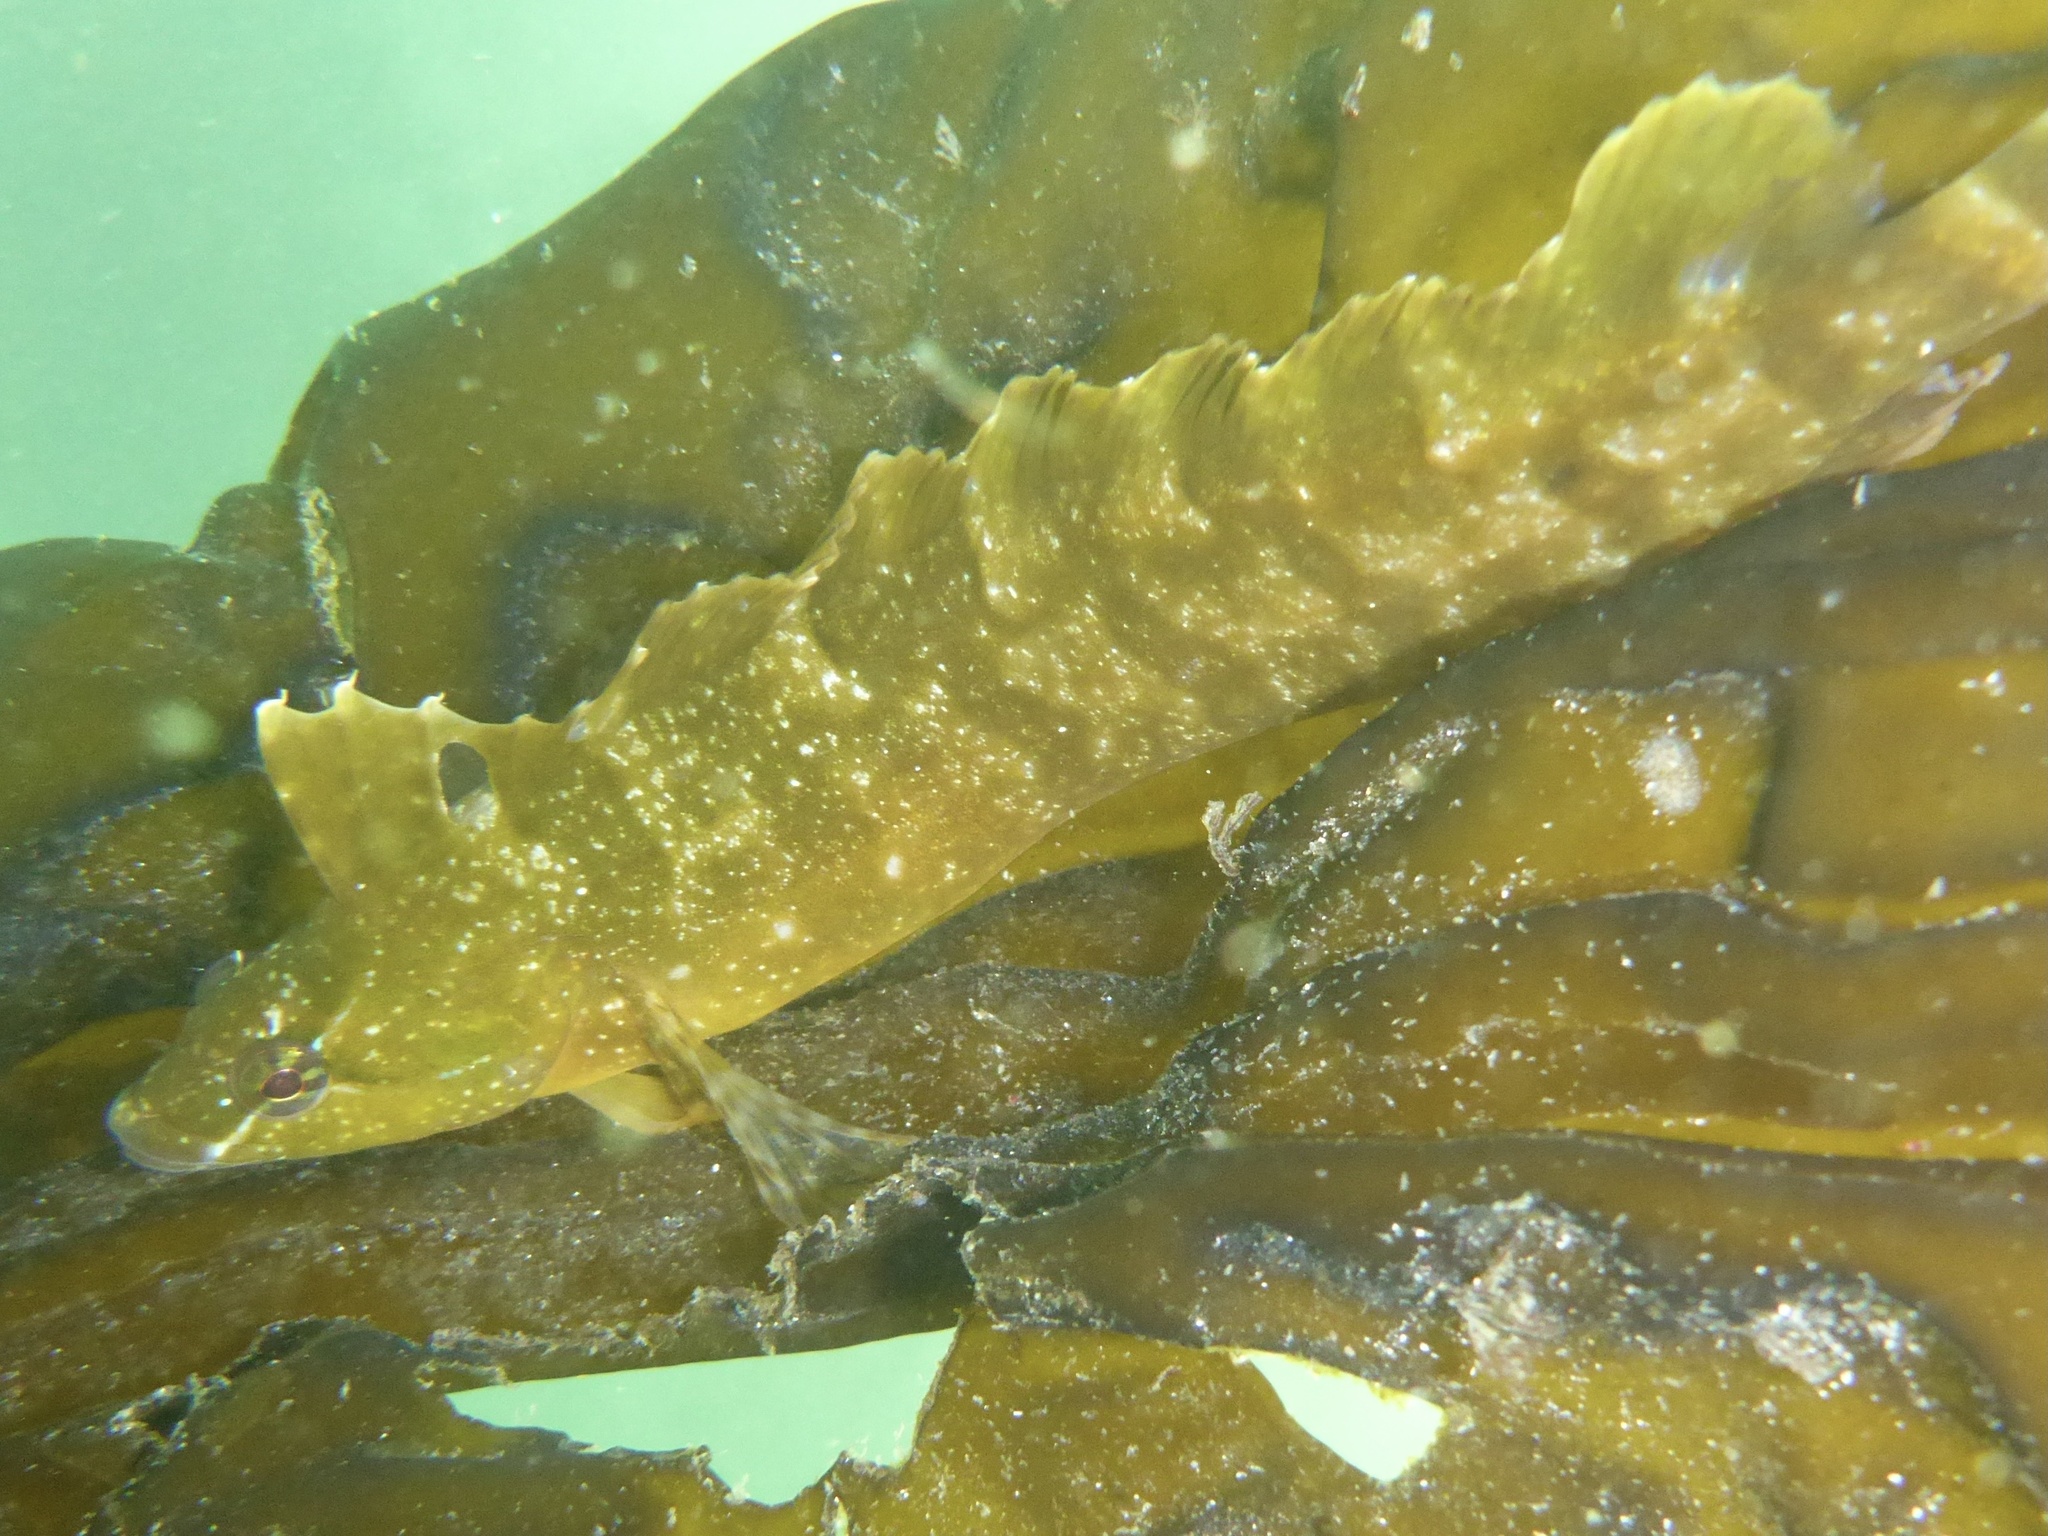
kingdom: Animalia
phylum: Chordata
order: Perciformes
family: Clinidae
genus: Gibbonsia
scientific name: Gibbonsia metzi
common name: Striped kelpfish
